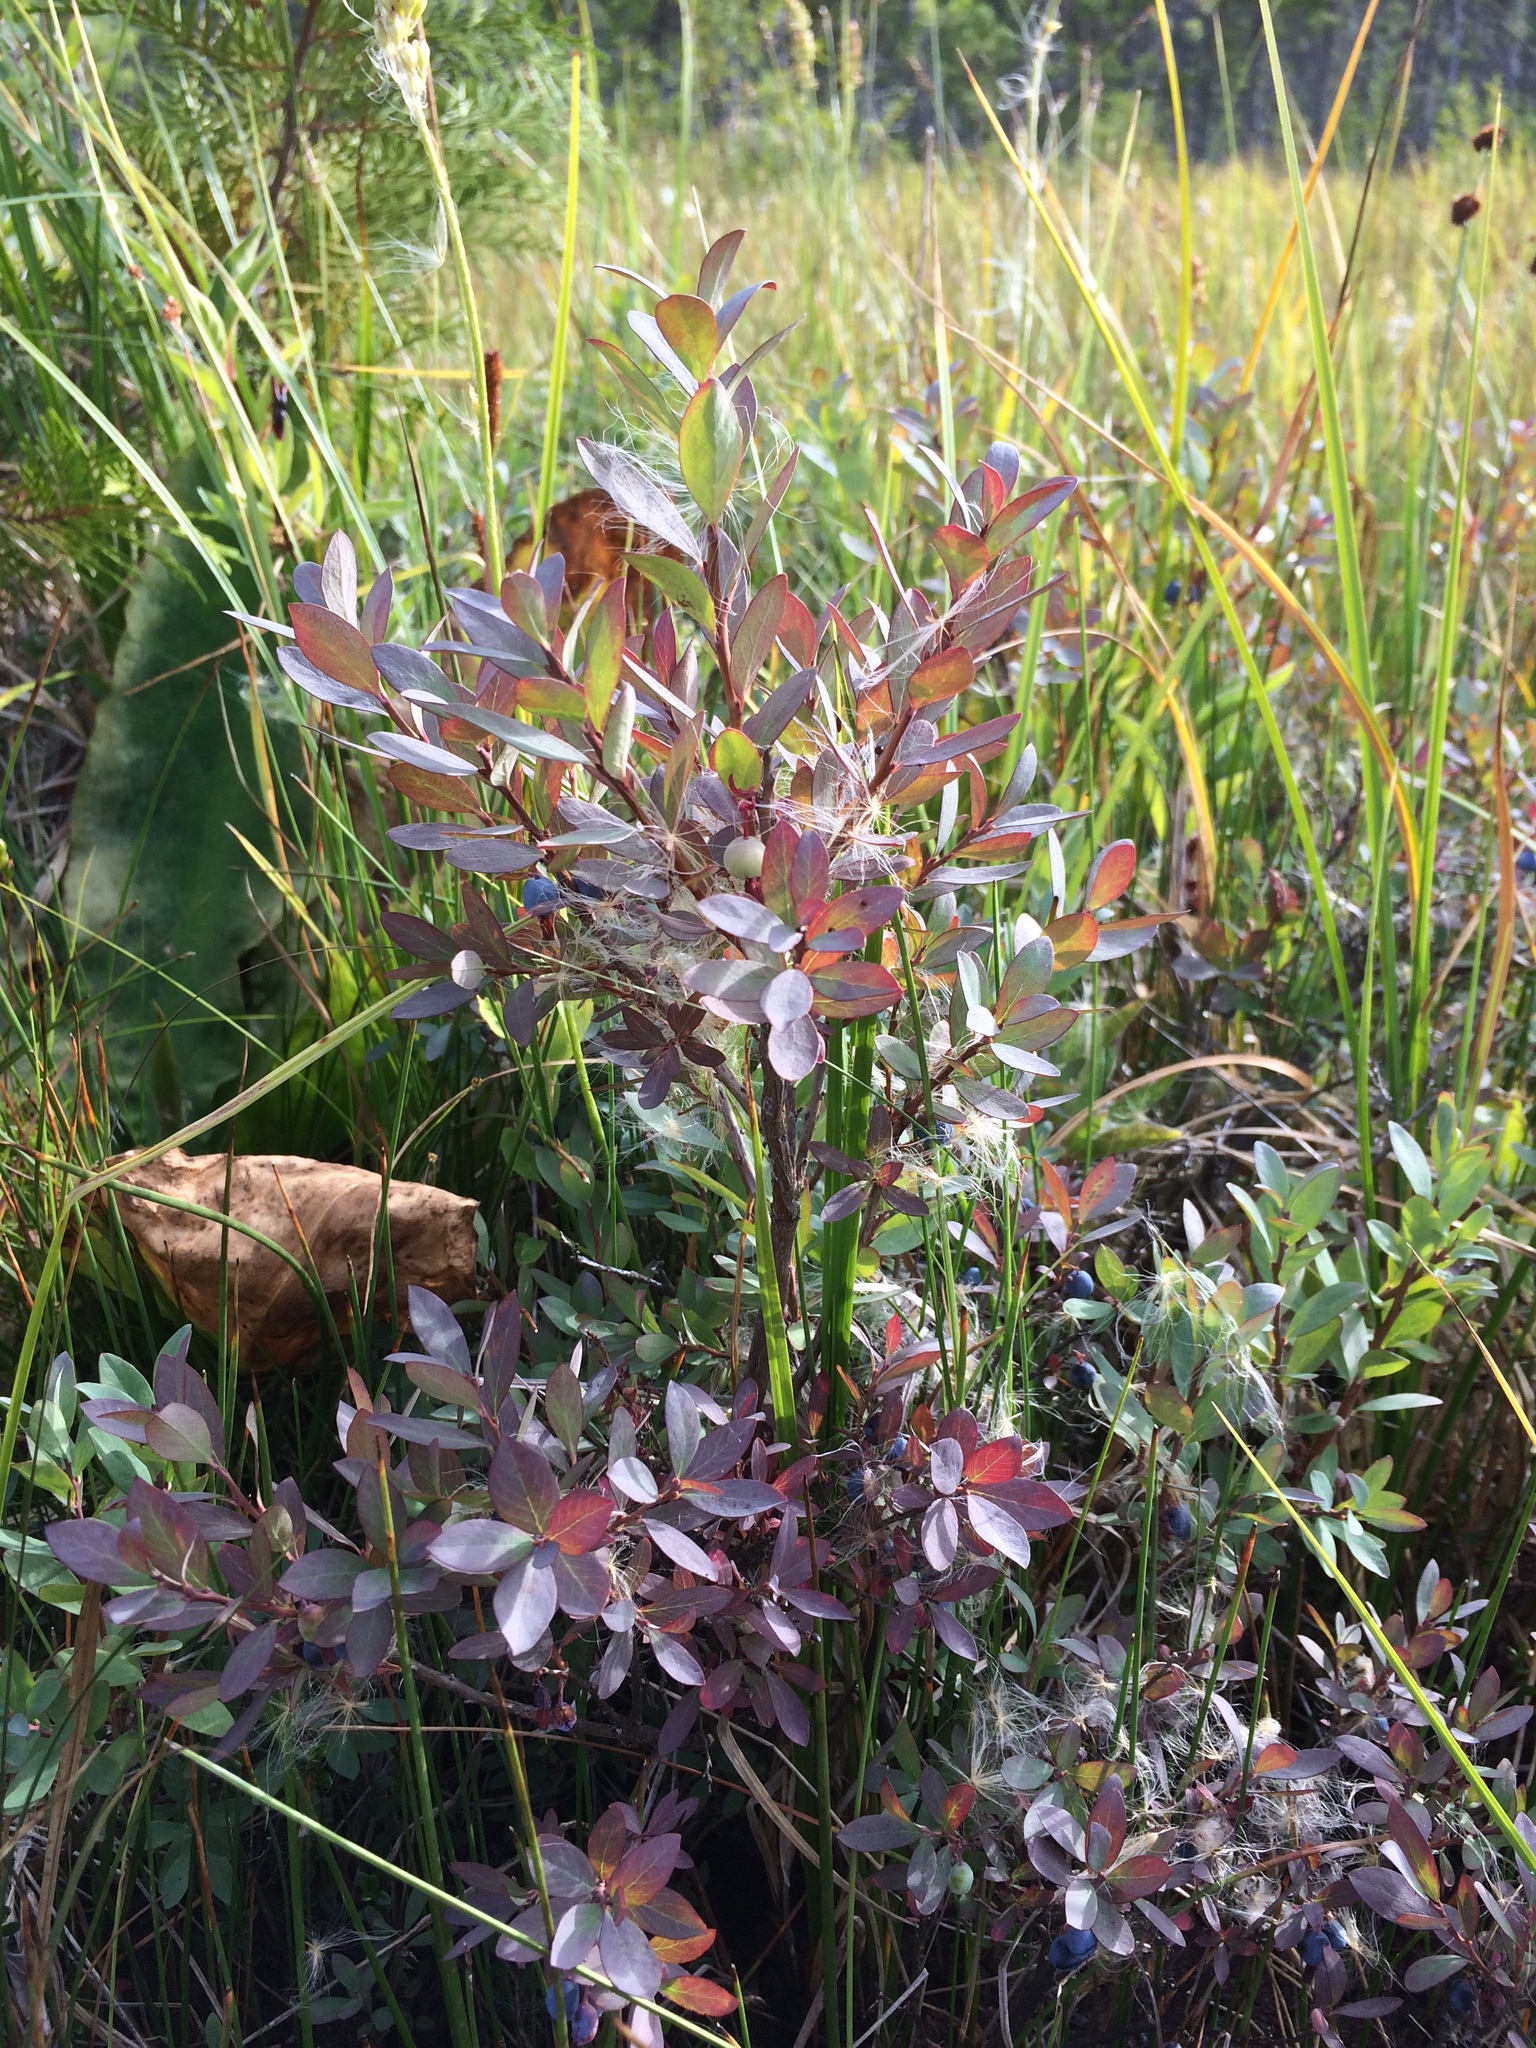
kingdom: Plantae
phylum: Tracheophyta
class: Magnoliopsida
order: Ericales
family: Ericaceae
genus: Vaccinium
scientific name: Vaccinium uliginosum
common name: Bog bilberry
